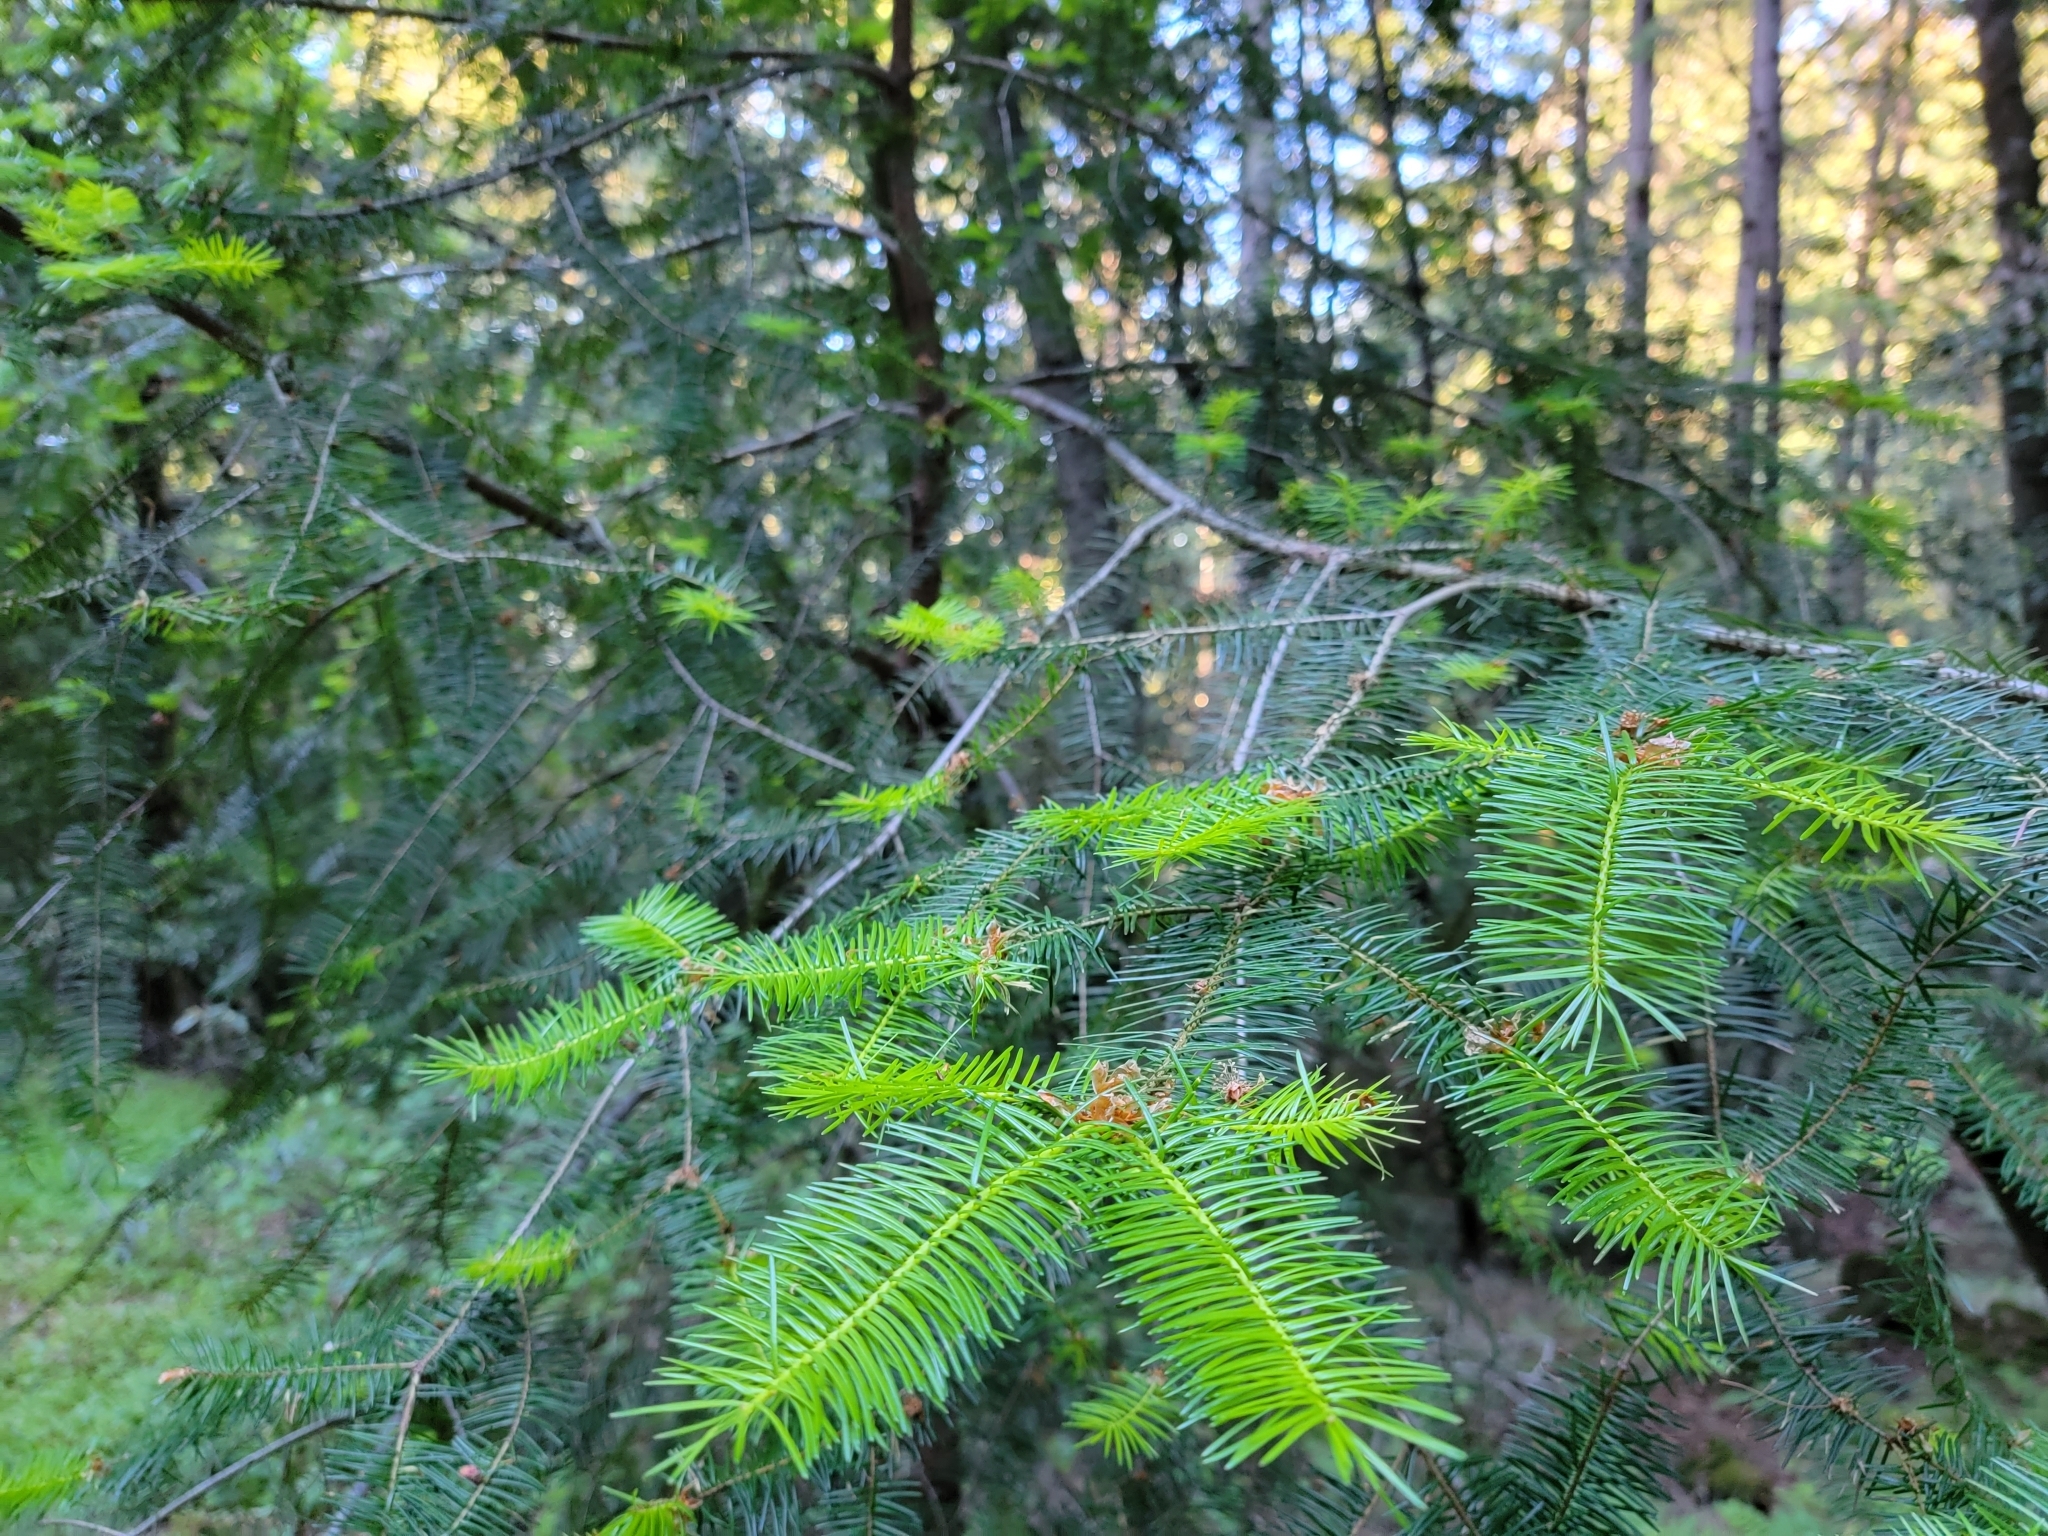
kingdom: Plantae
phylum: Tracheophyta
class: Pinopsida
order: Pinales
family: Pinaceae
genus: Pseudotsuga
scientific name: Pseudotsuga menziesii
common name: Douglas fir
